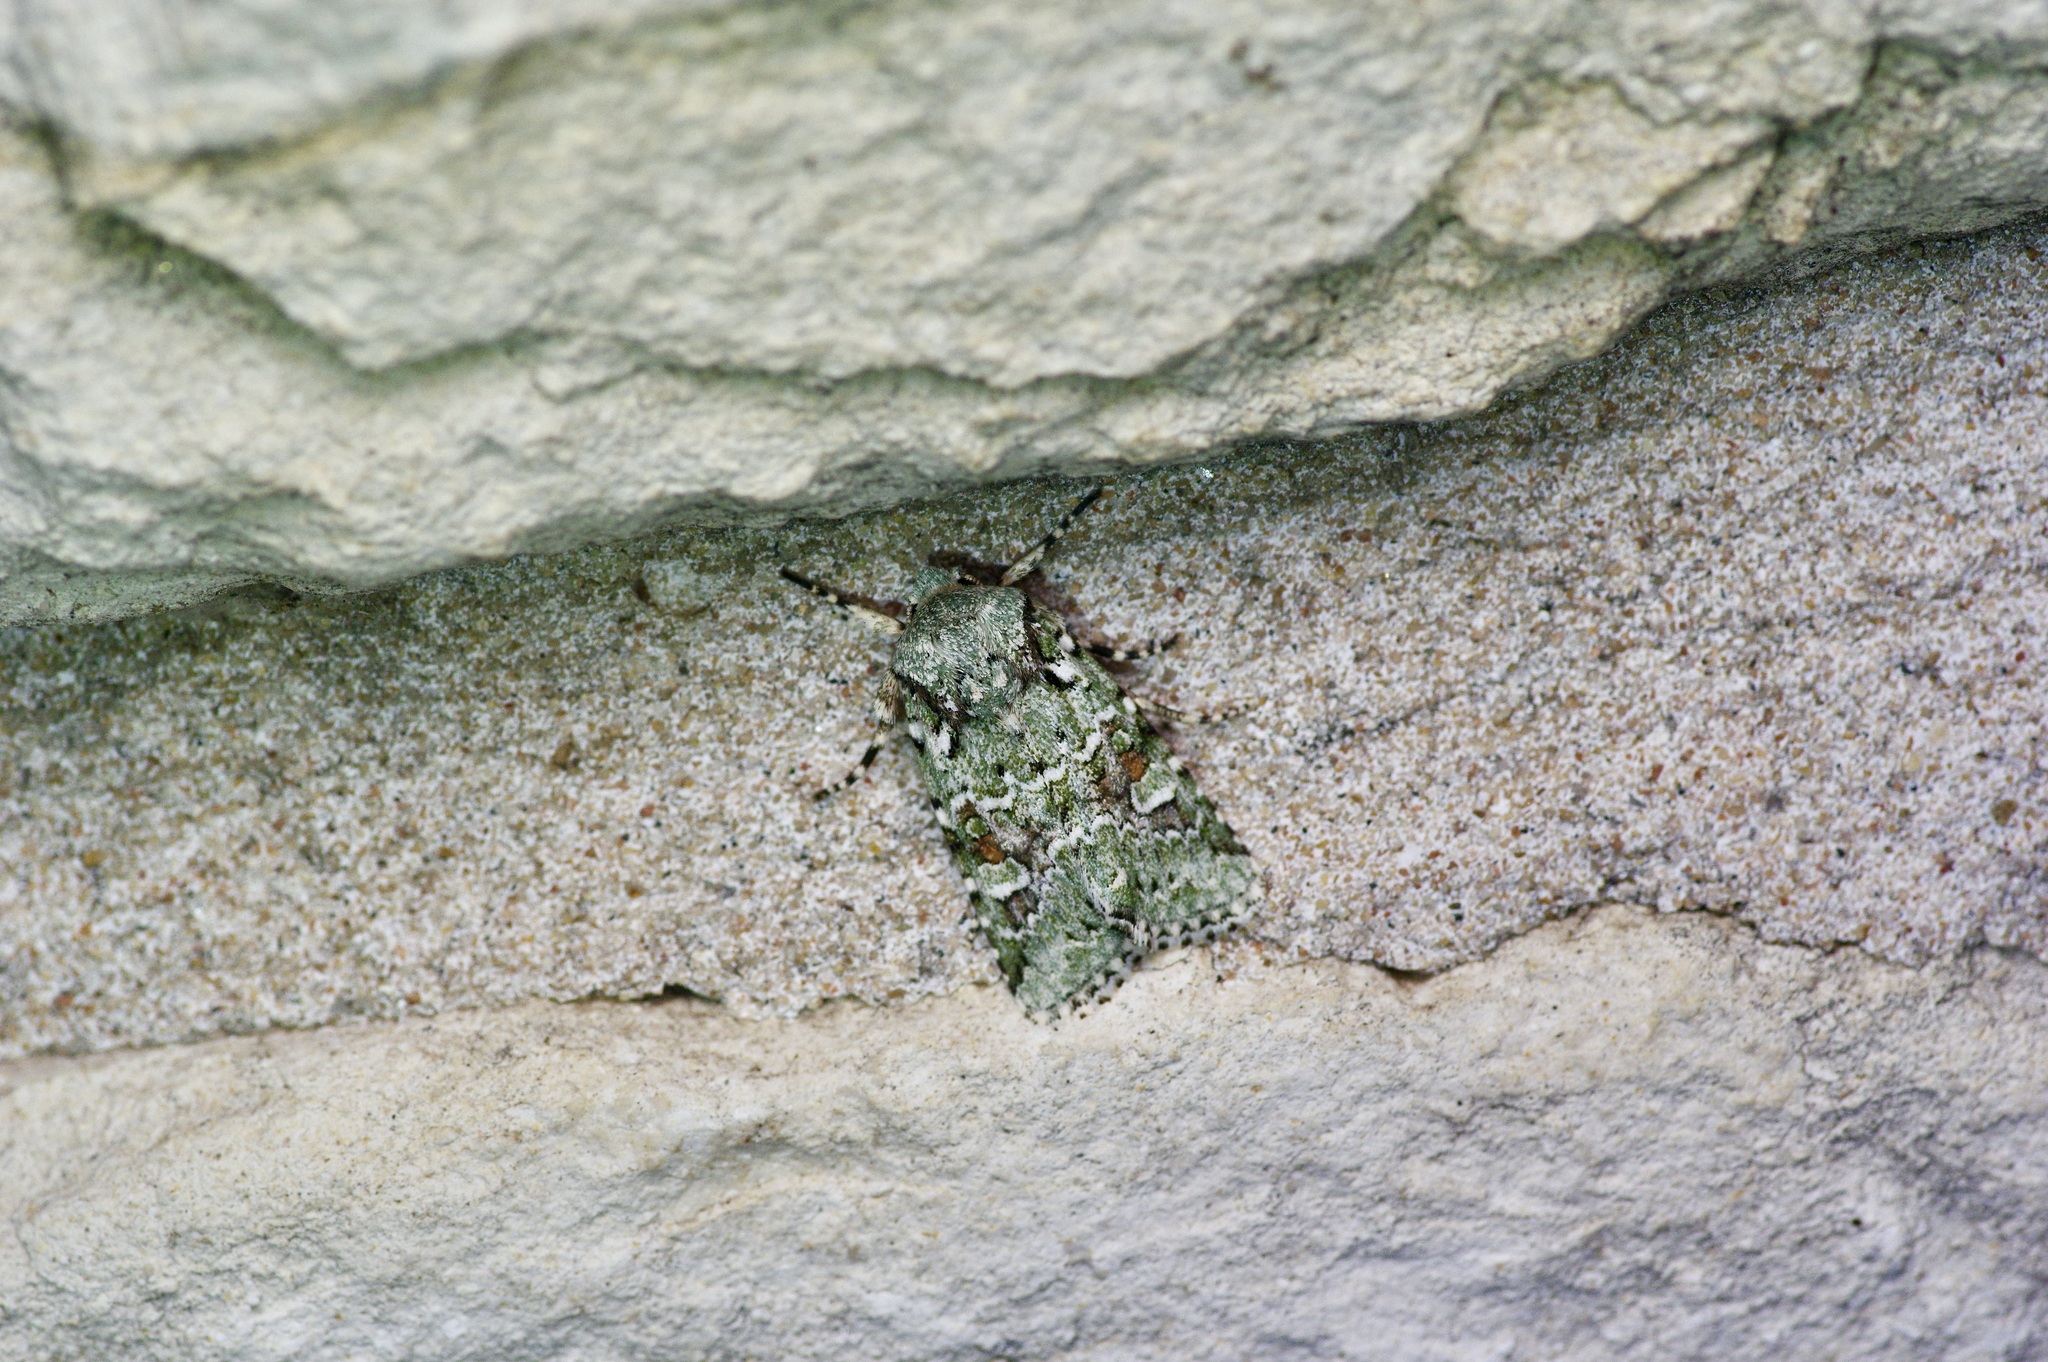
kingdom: Animalia
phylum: Arthropoda
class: Insecta
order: Lepidoptera
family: Noctuidae
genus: Lacinipolia
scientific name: Lacinipolia laudabilis
